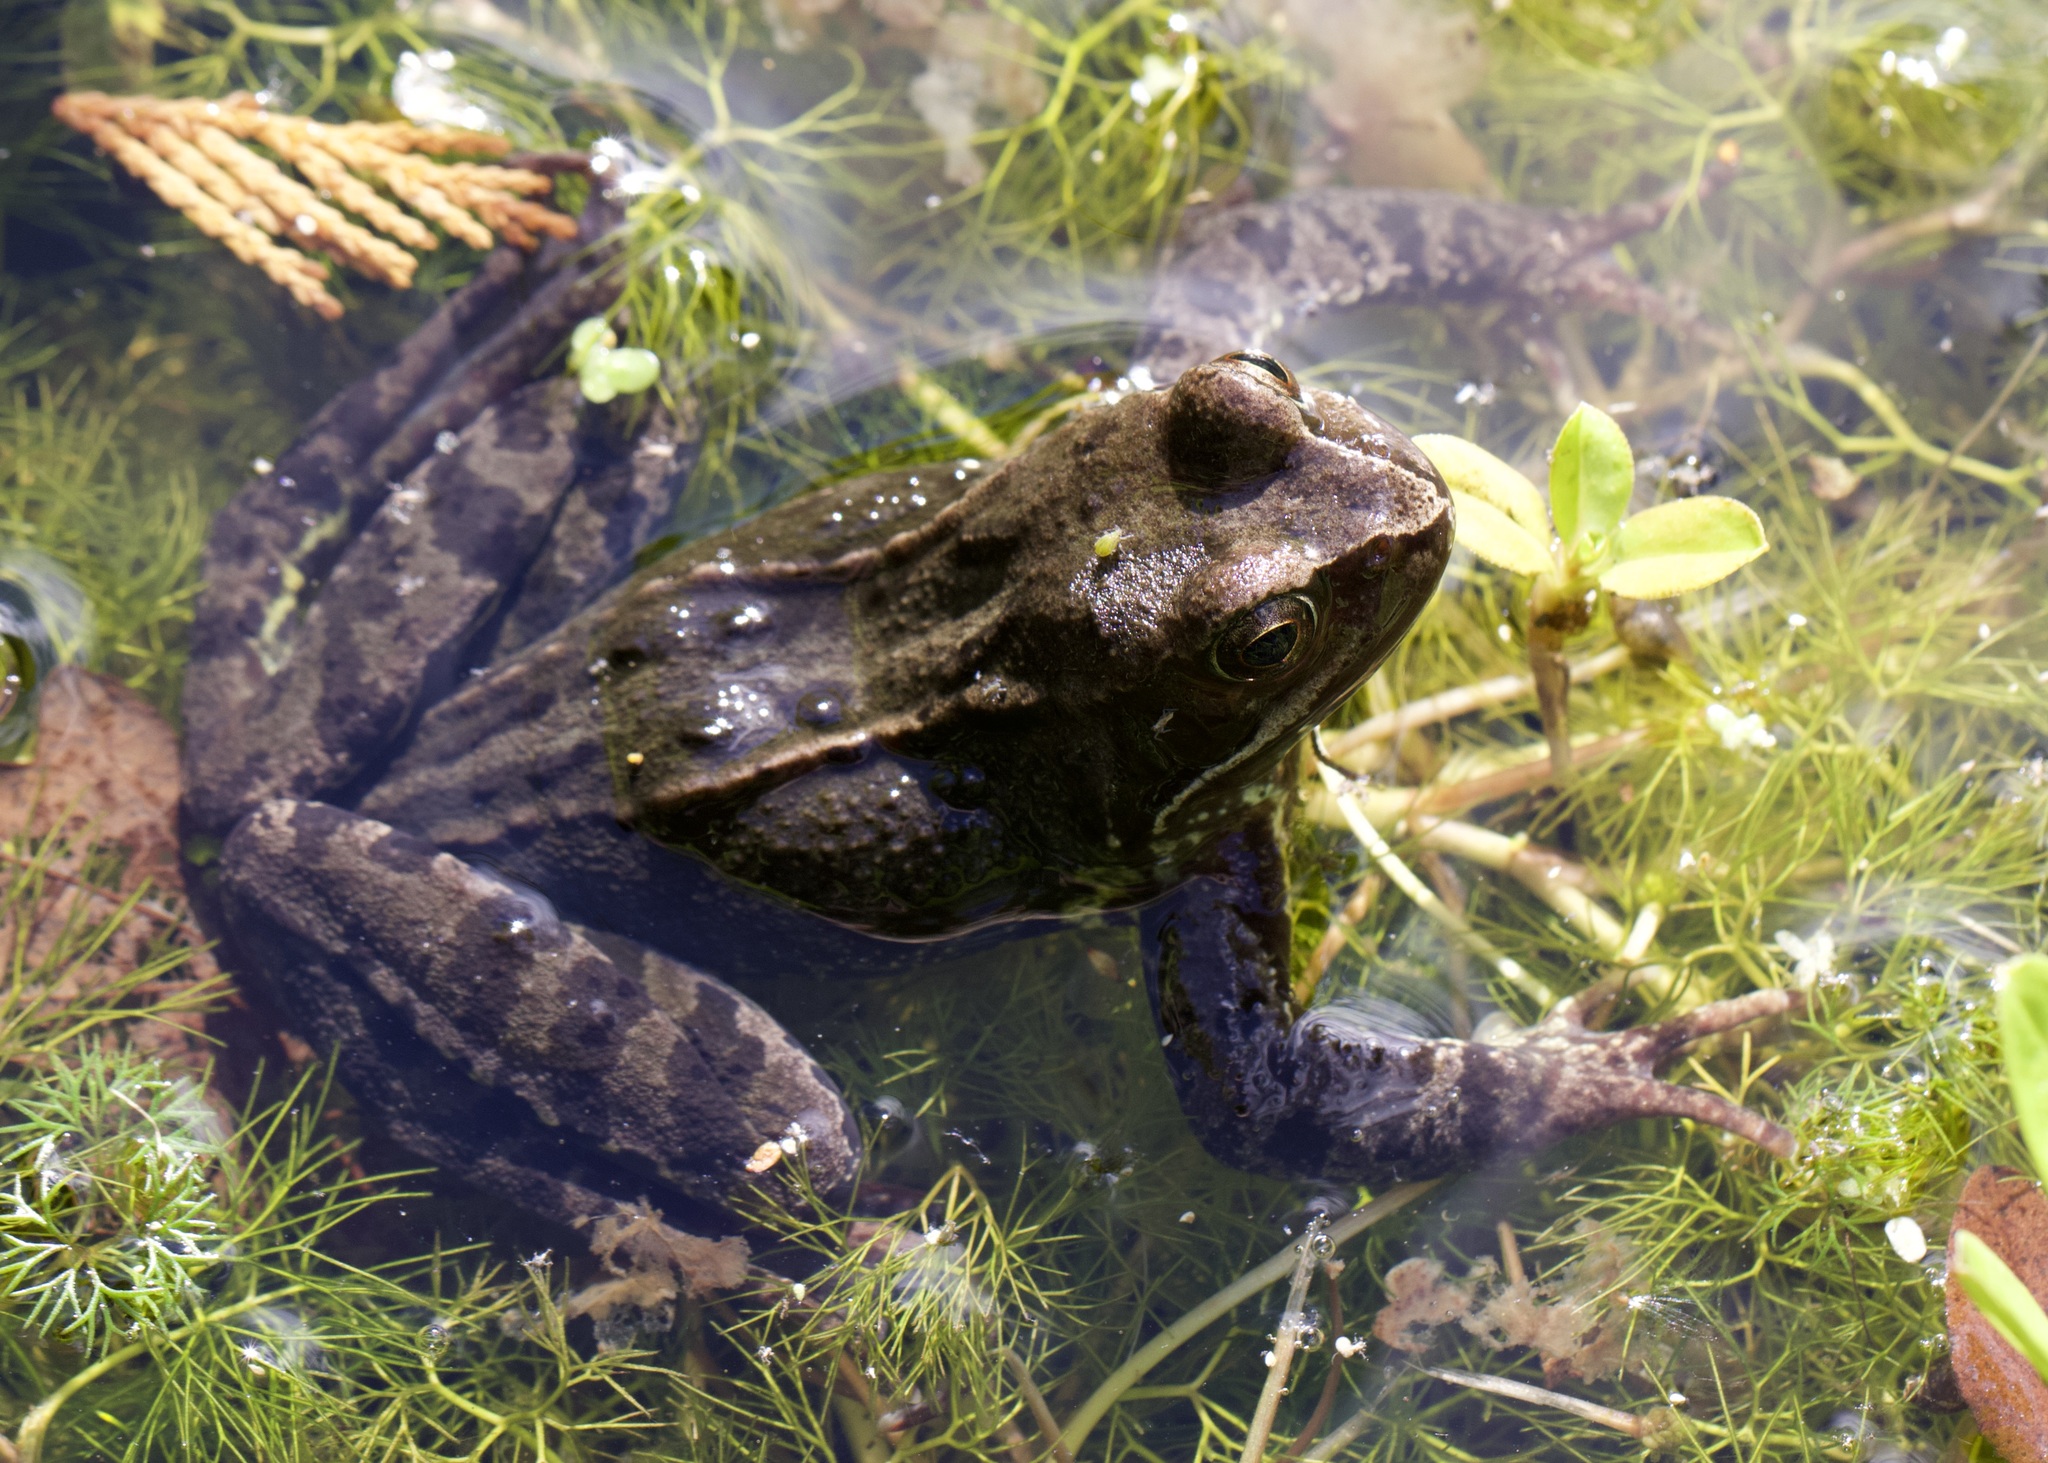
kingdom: Animalia
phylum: Chordata
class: Amphibia
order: Anura
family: Ranidae
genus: Rana
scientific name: Rana temporaria
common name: Common frog
